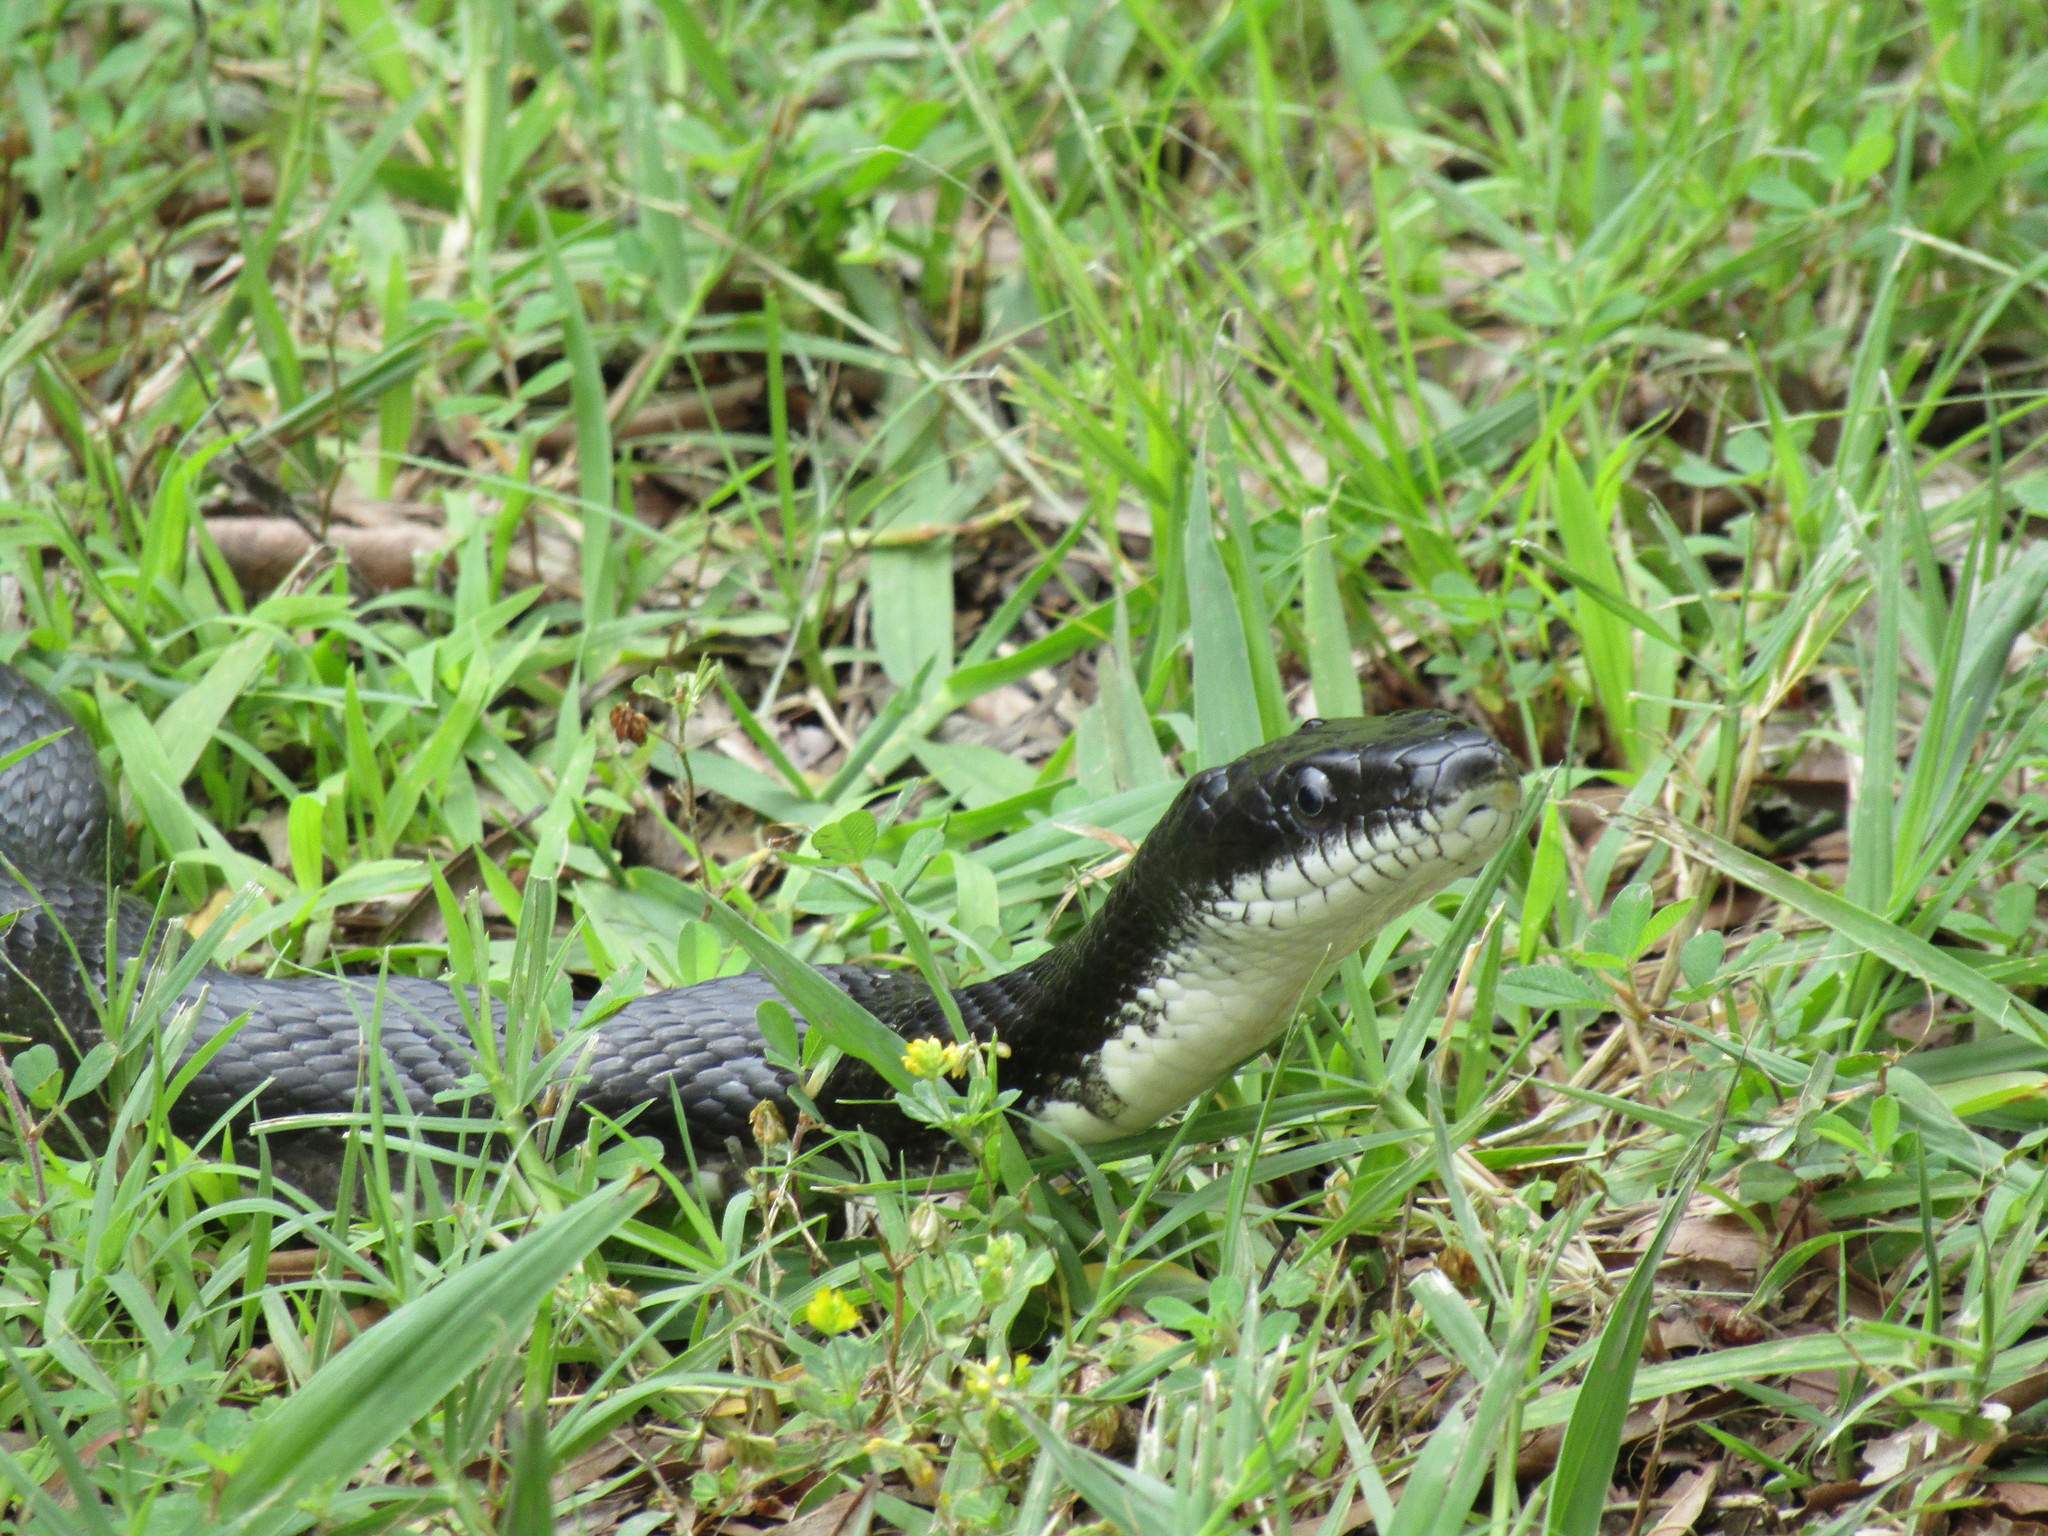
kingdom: Animalia
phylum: Chordata
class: Squamata
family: Colubridae
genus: Pantherophis
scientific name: Pantherophis alleghaniensis
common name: Eastern rat snake
